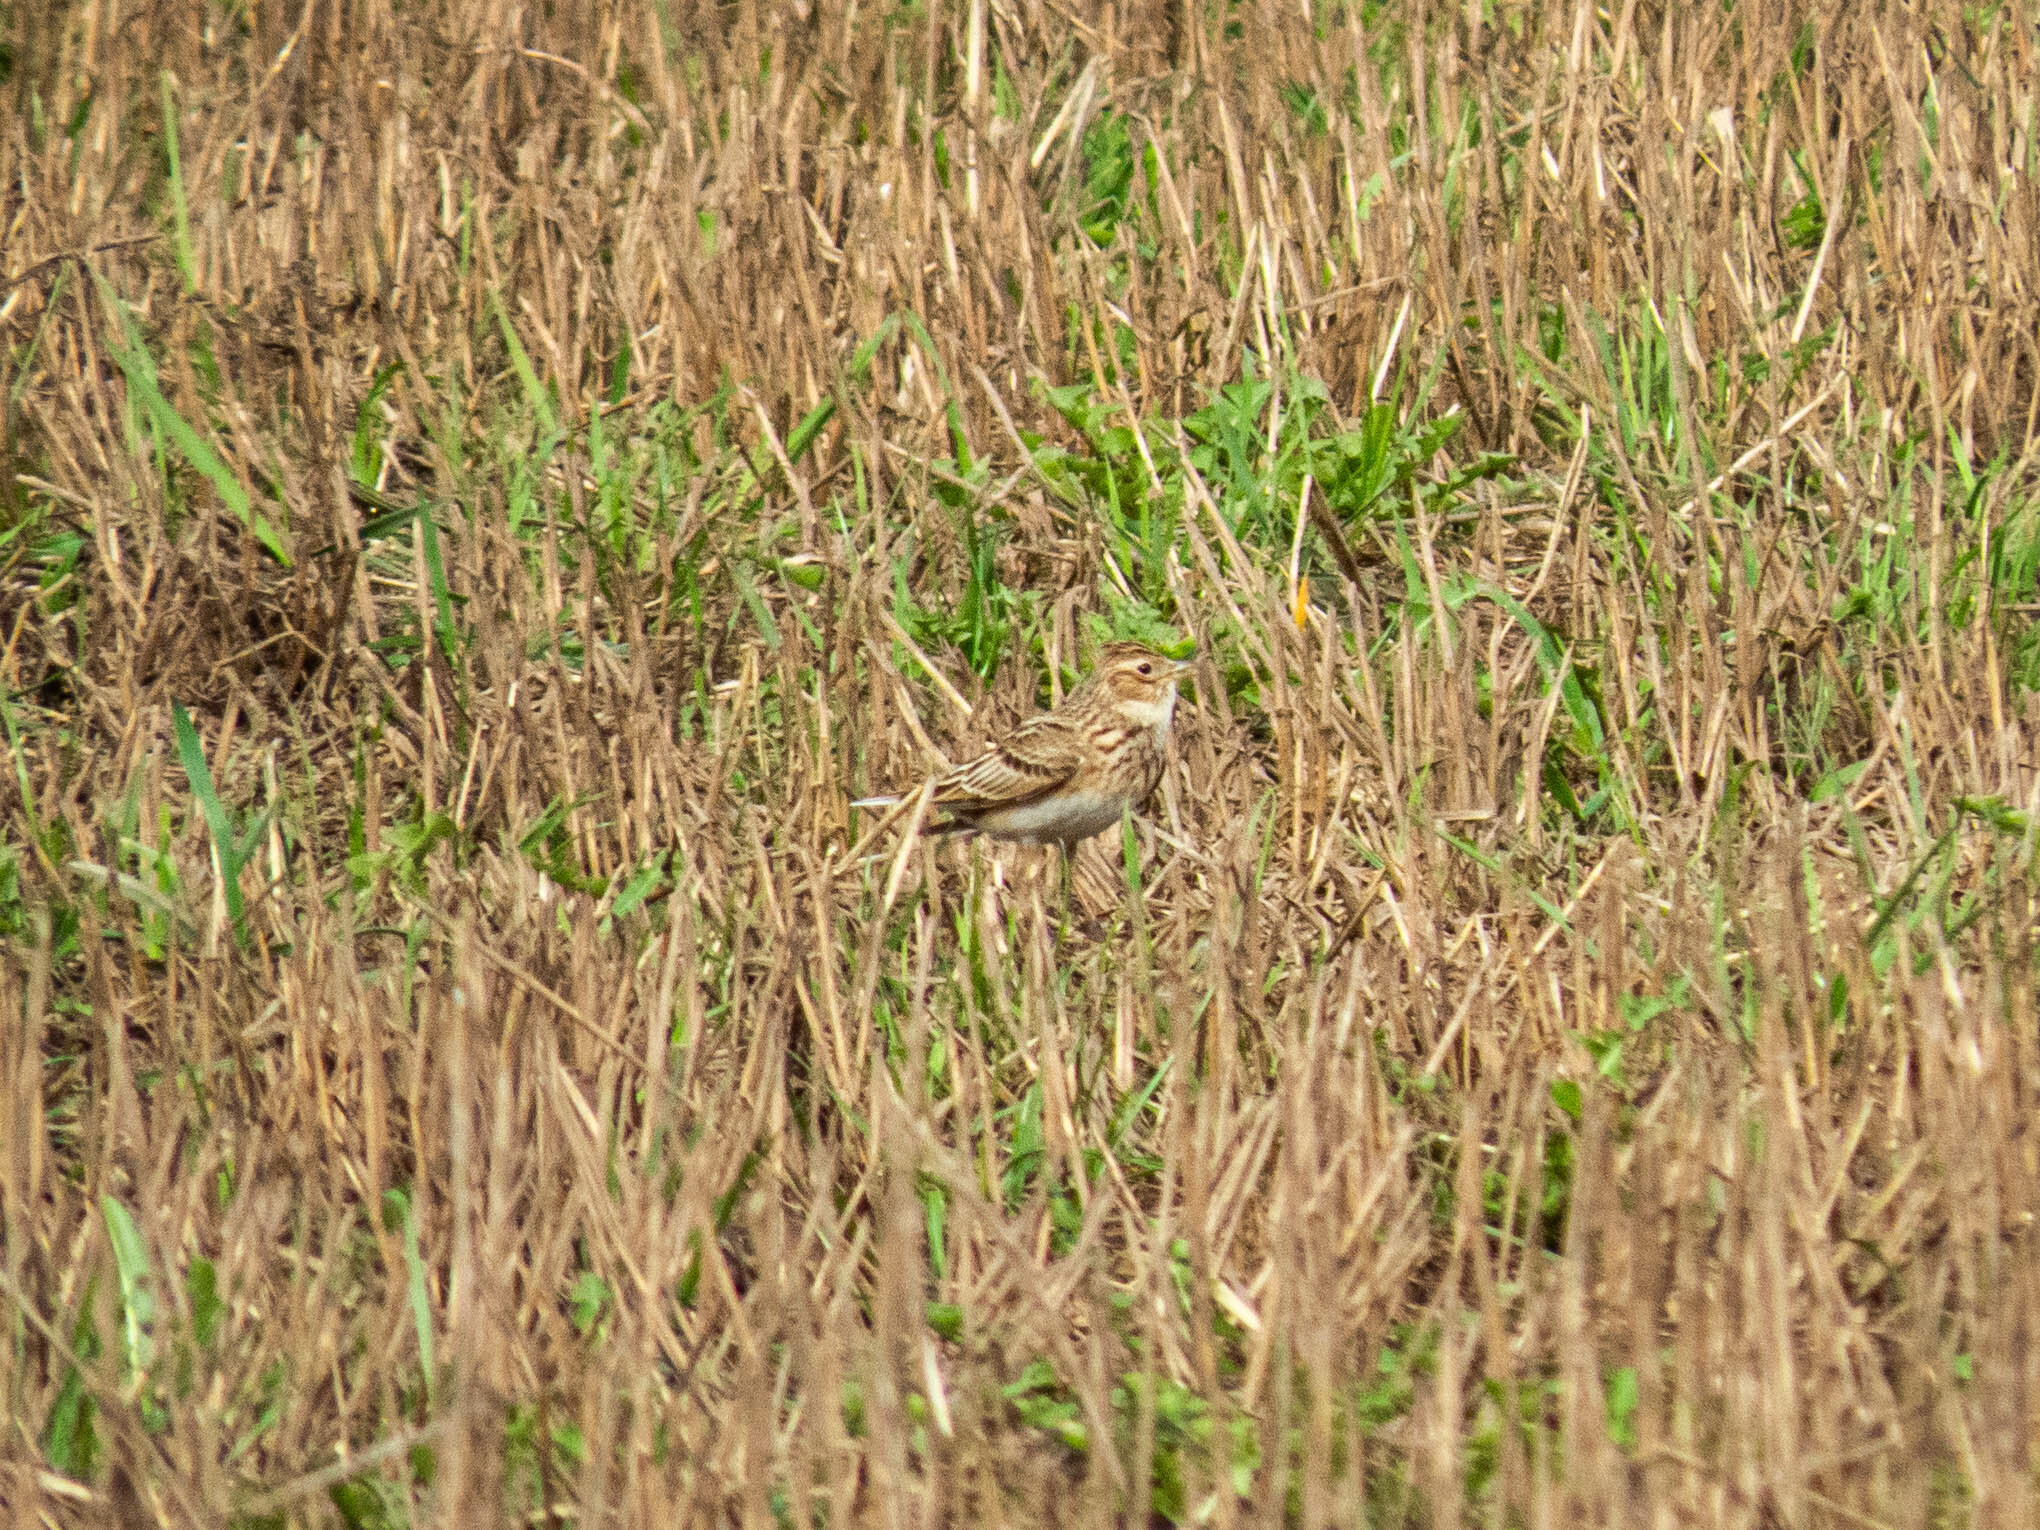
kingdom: Animalia
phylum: Chordata
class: Aves
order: Passeriformes
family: Alaudidae
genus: Alauda
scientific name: Alauda arvensis
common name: Eurasian skylark
